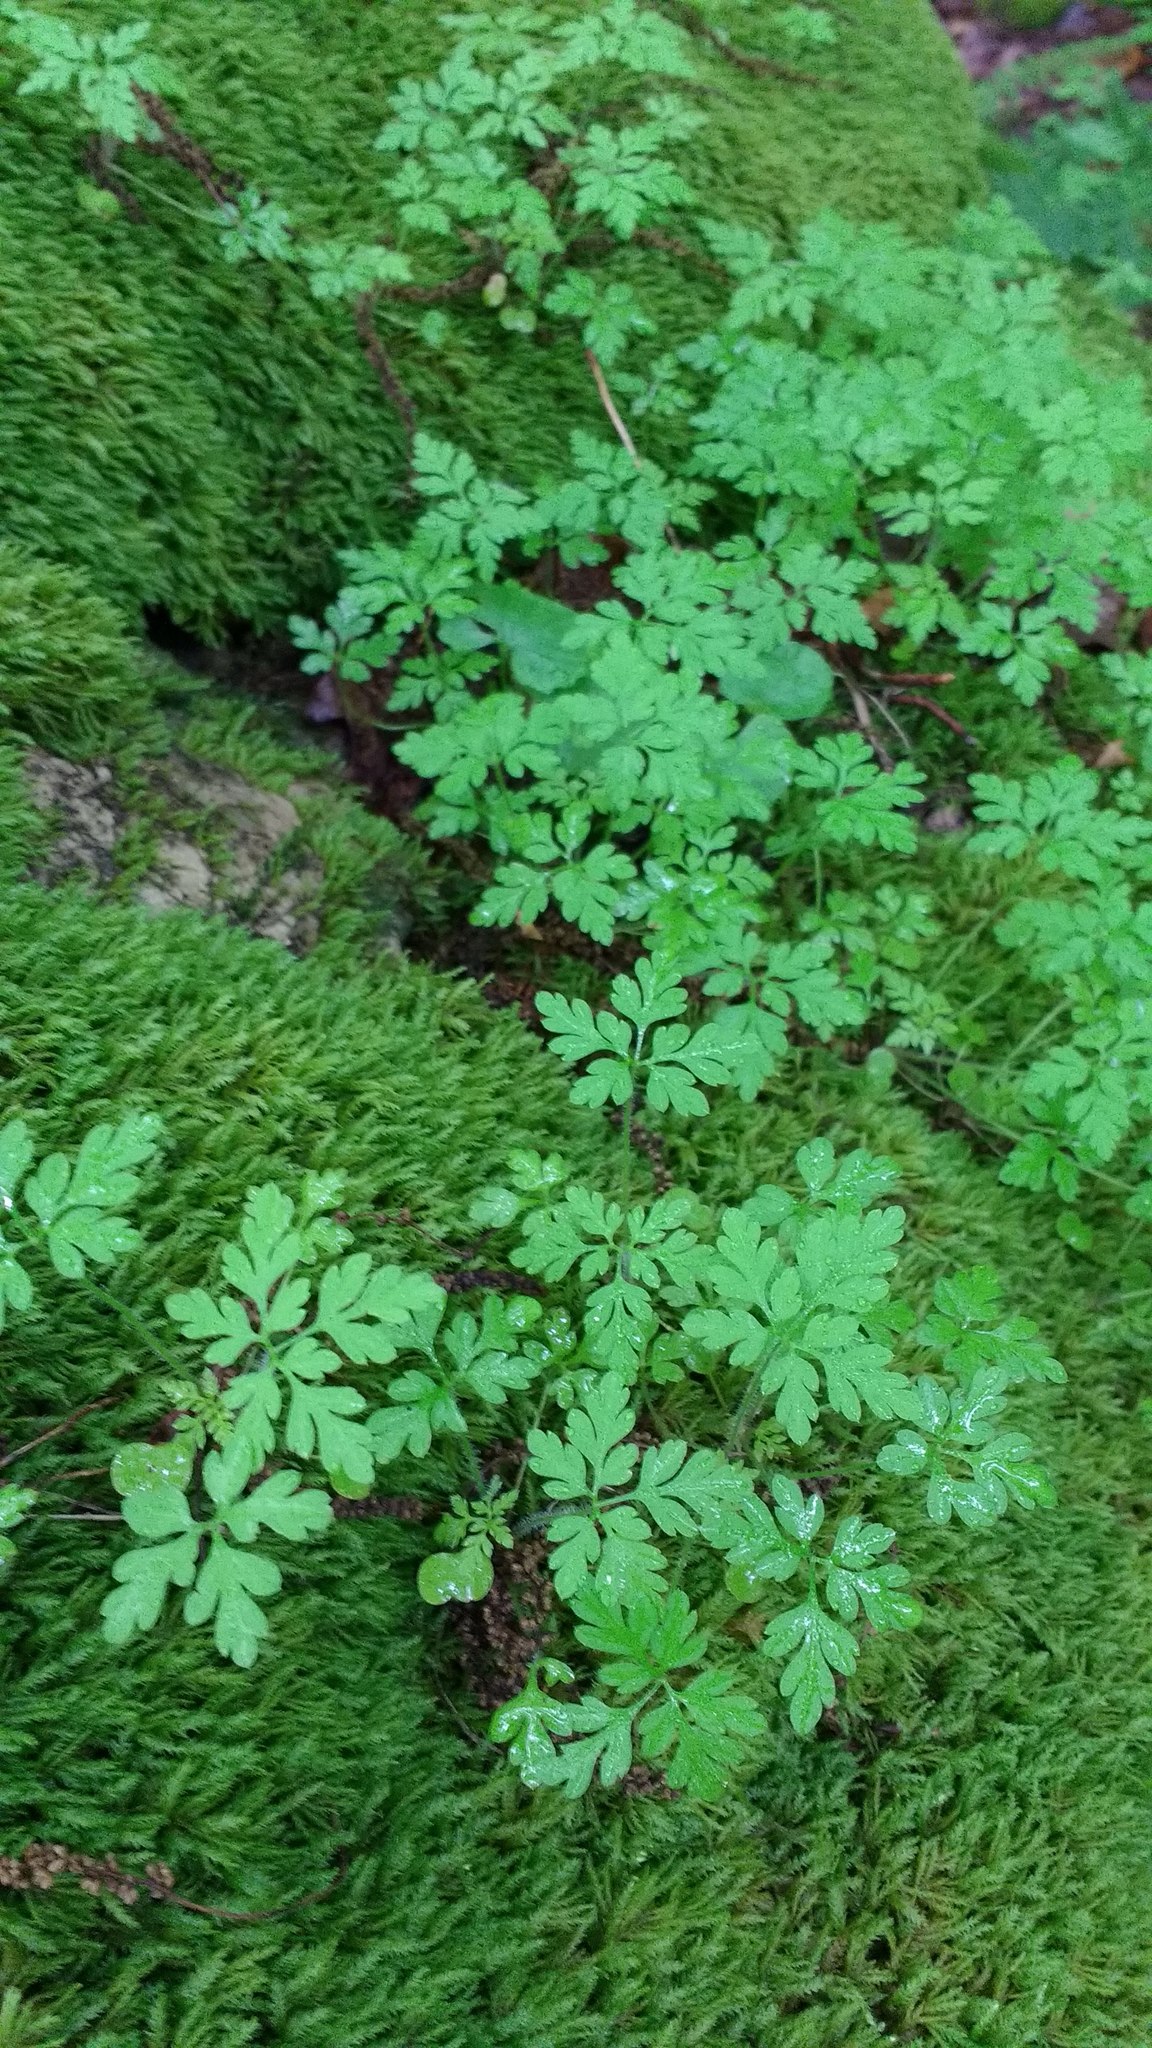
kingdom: Plantae
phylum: Tracheophyta
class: Magnoliopsida
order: Geraniales
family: Geraniaceae
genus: Geranium
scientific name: Geranium robertianum
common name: Herb-robert
